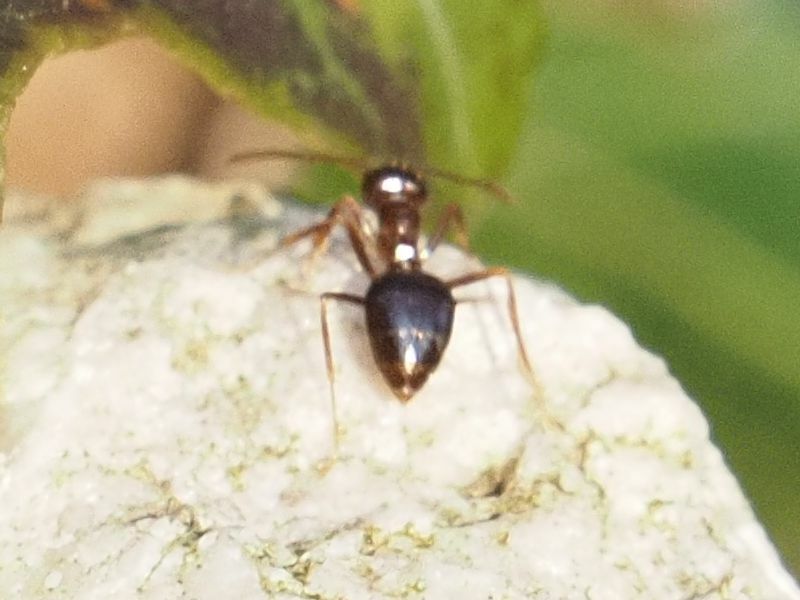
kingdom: Animalia
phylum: Arthropoda
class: Insecta
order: Hymenoptera
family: Formicidae
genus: Prenolepis
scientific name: Prenolepis nitens
